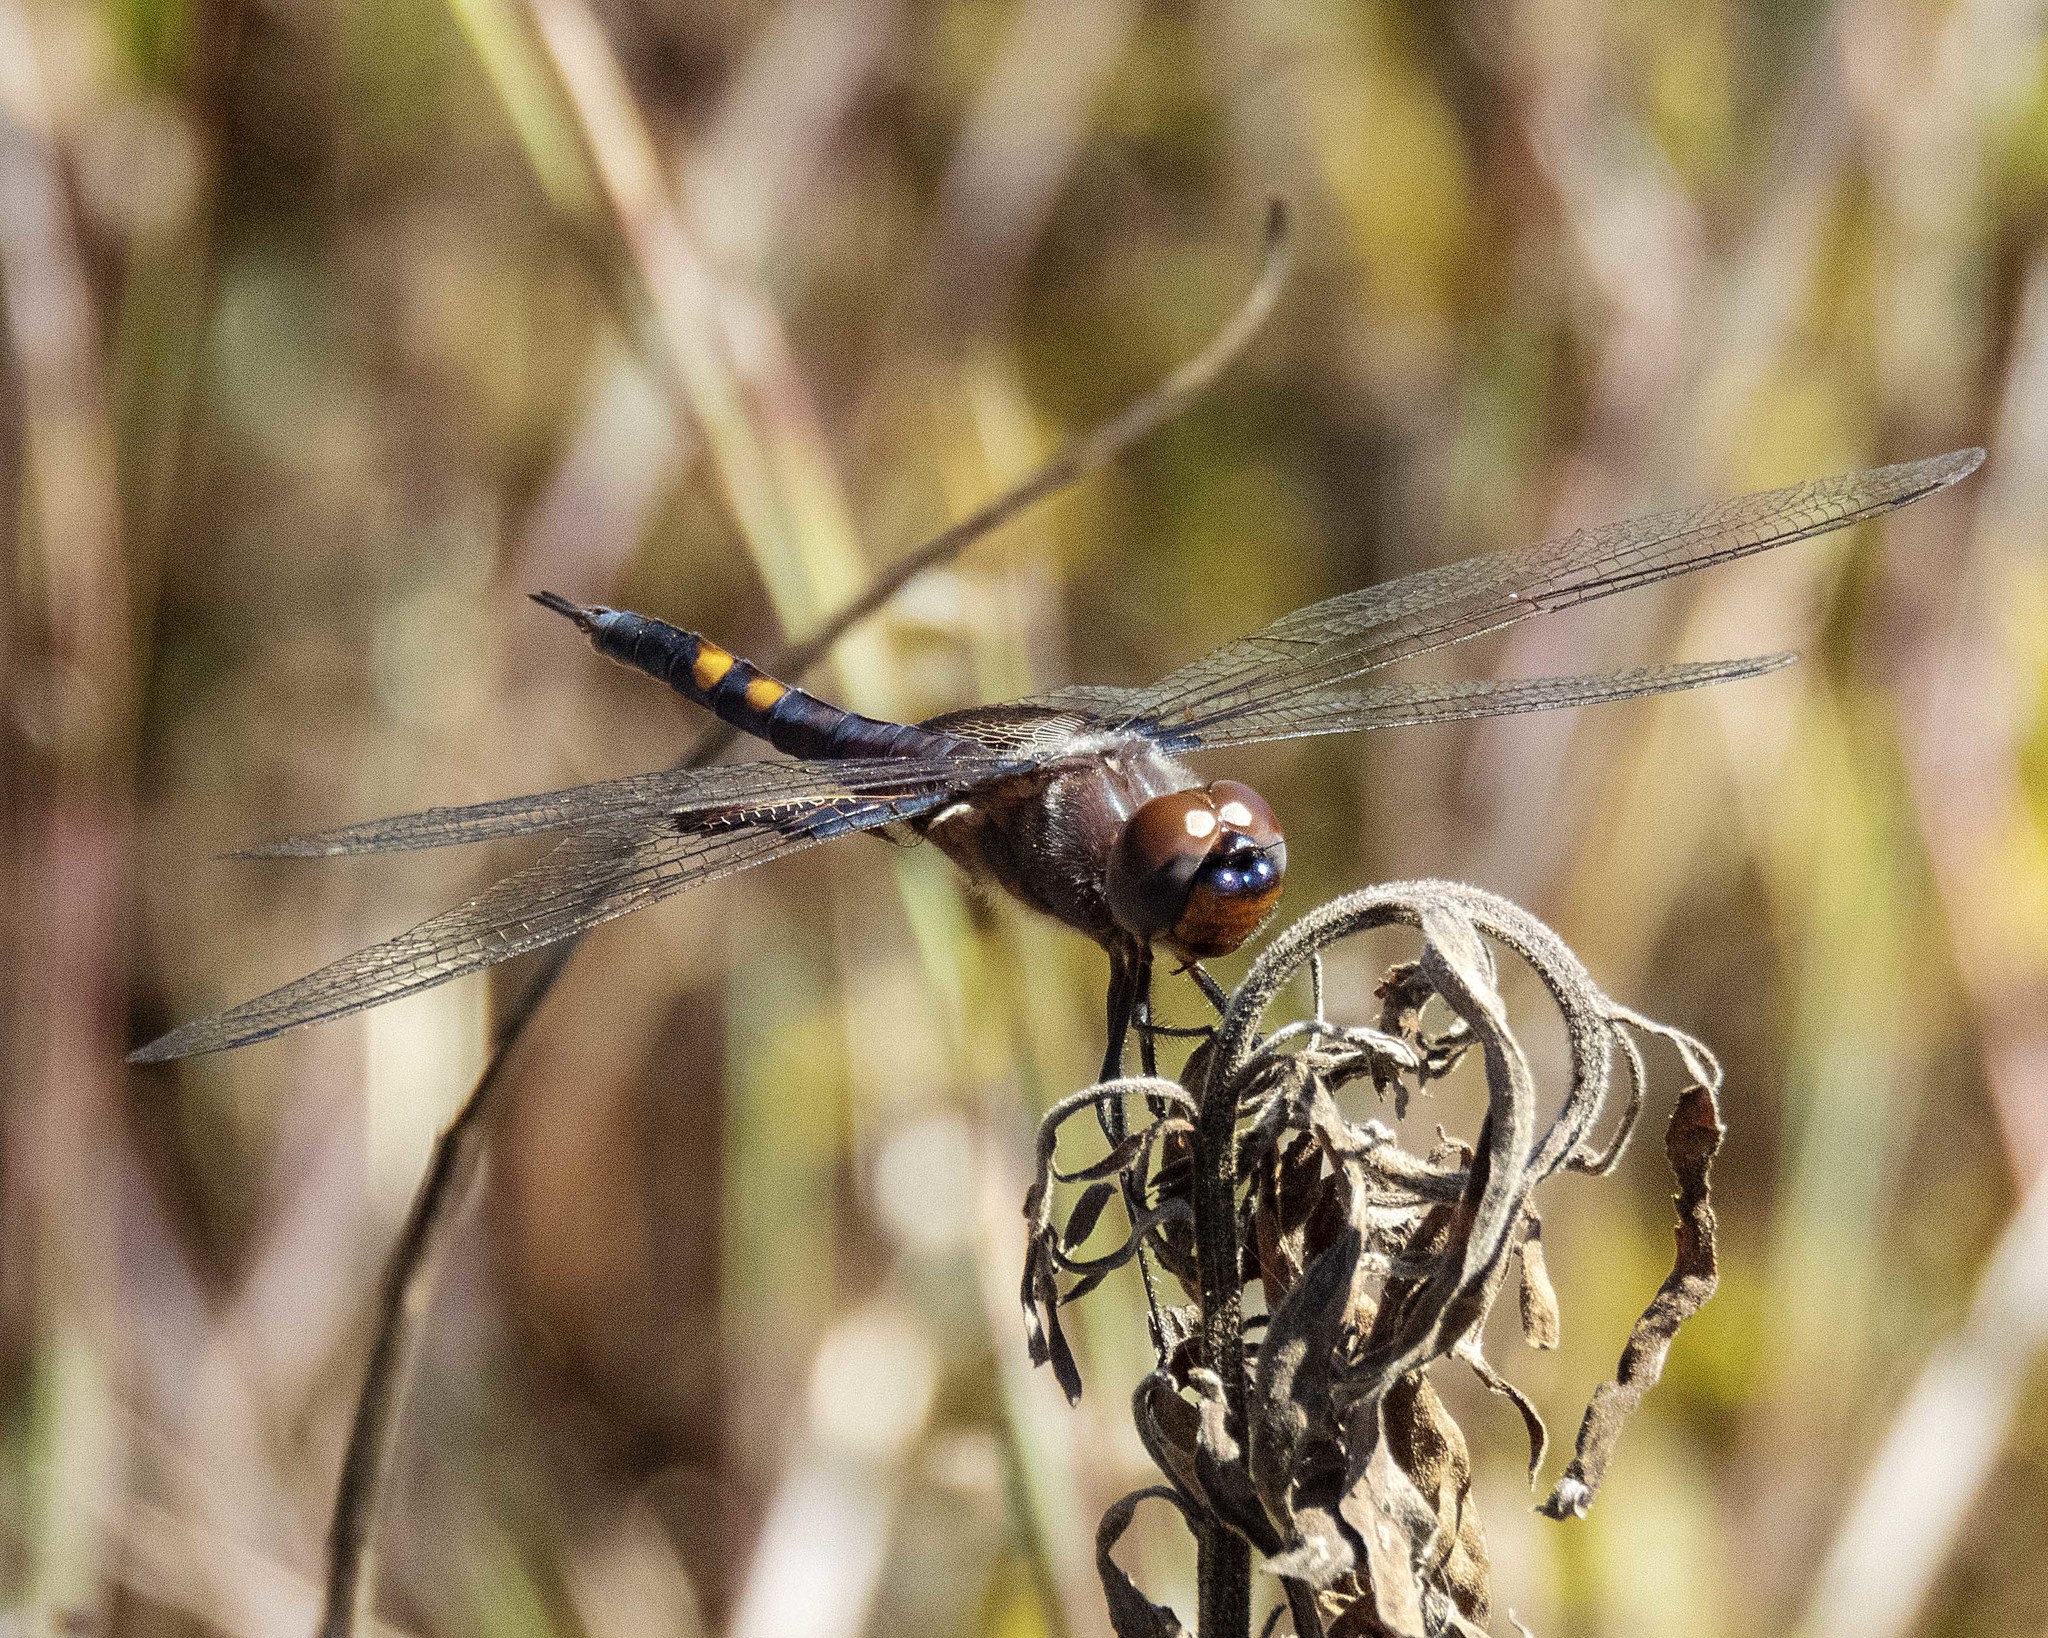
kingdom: Animalia
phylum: Arthropoda
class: Insecta
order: Odonata
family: Libellulidae
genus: Tramea
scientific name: Tramea lacerata
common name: Black saddlebags
